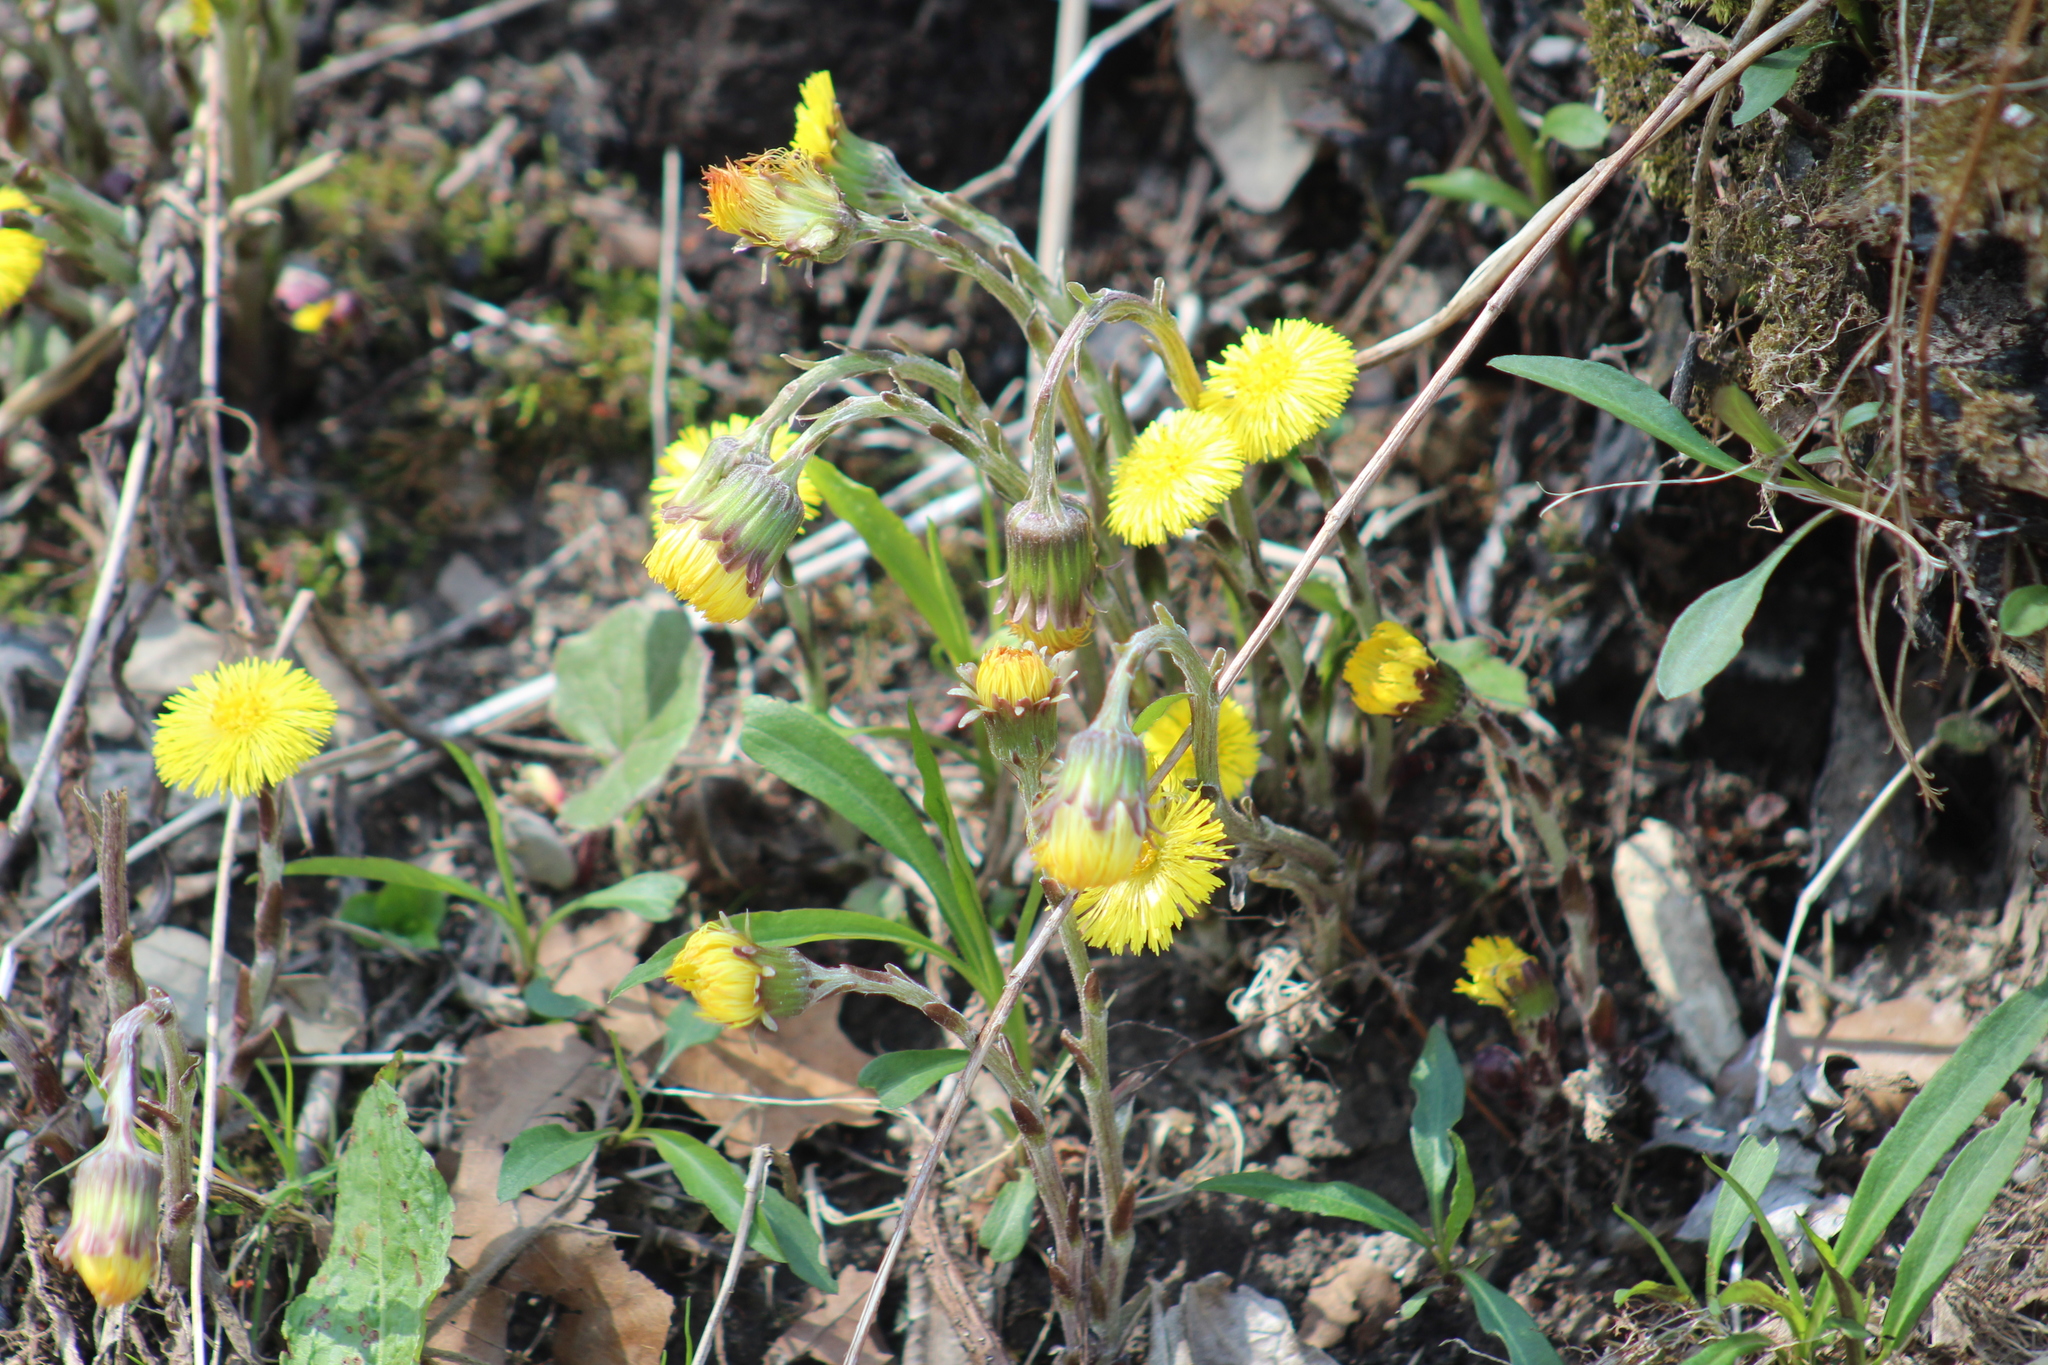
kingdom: Plantae
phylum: Tracheophyta
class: Magnoliopsida
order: Asterales
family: Asteraceae
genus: Tussilago
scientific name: Tussilago farfara
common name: Coltsfoot
